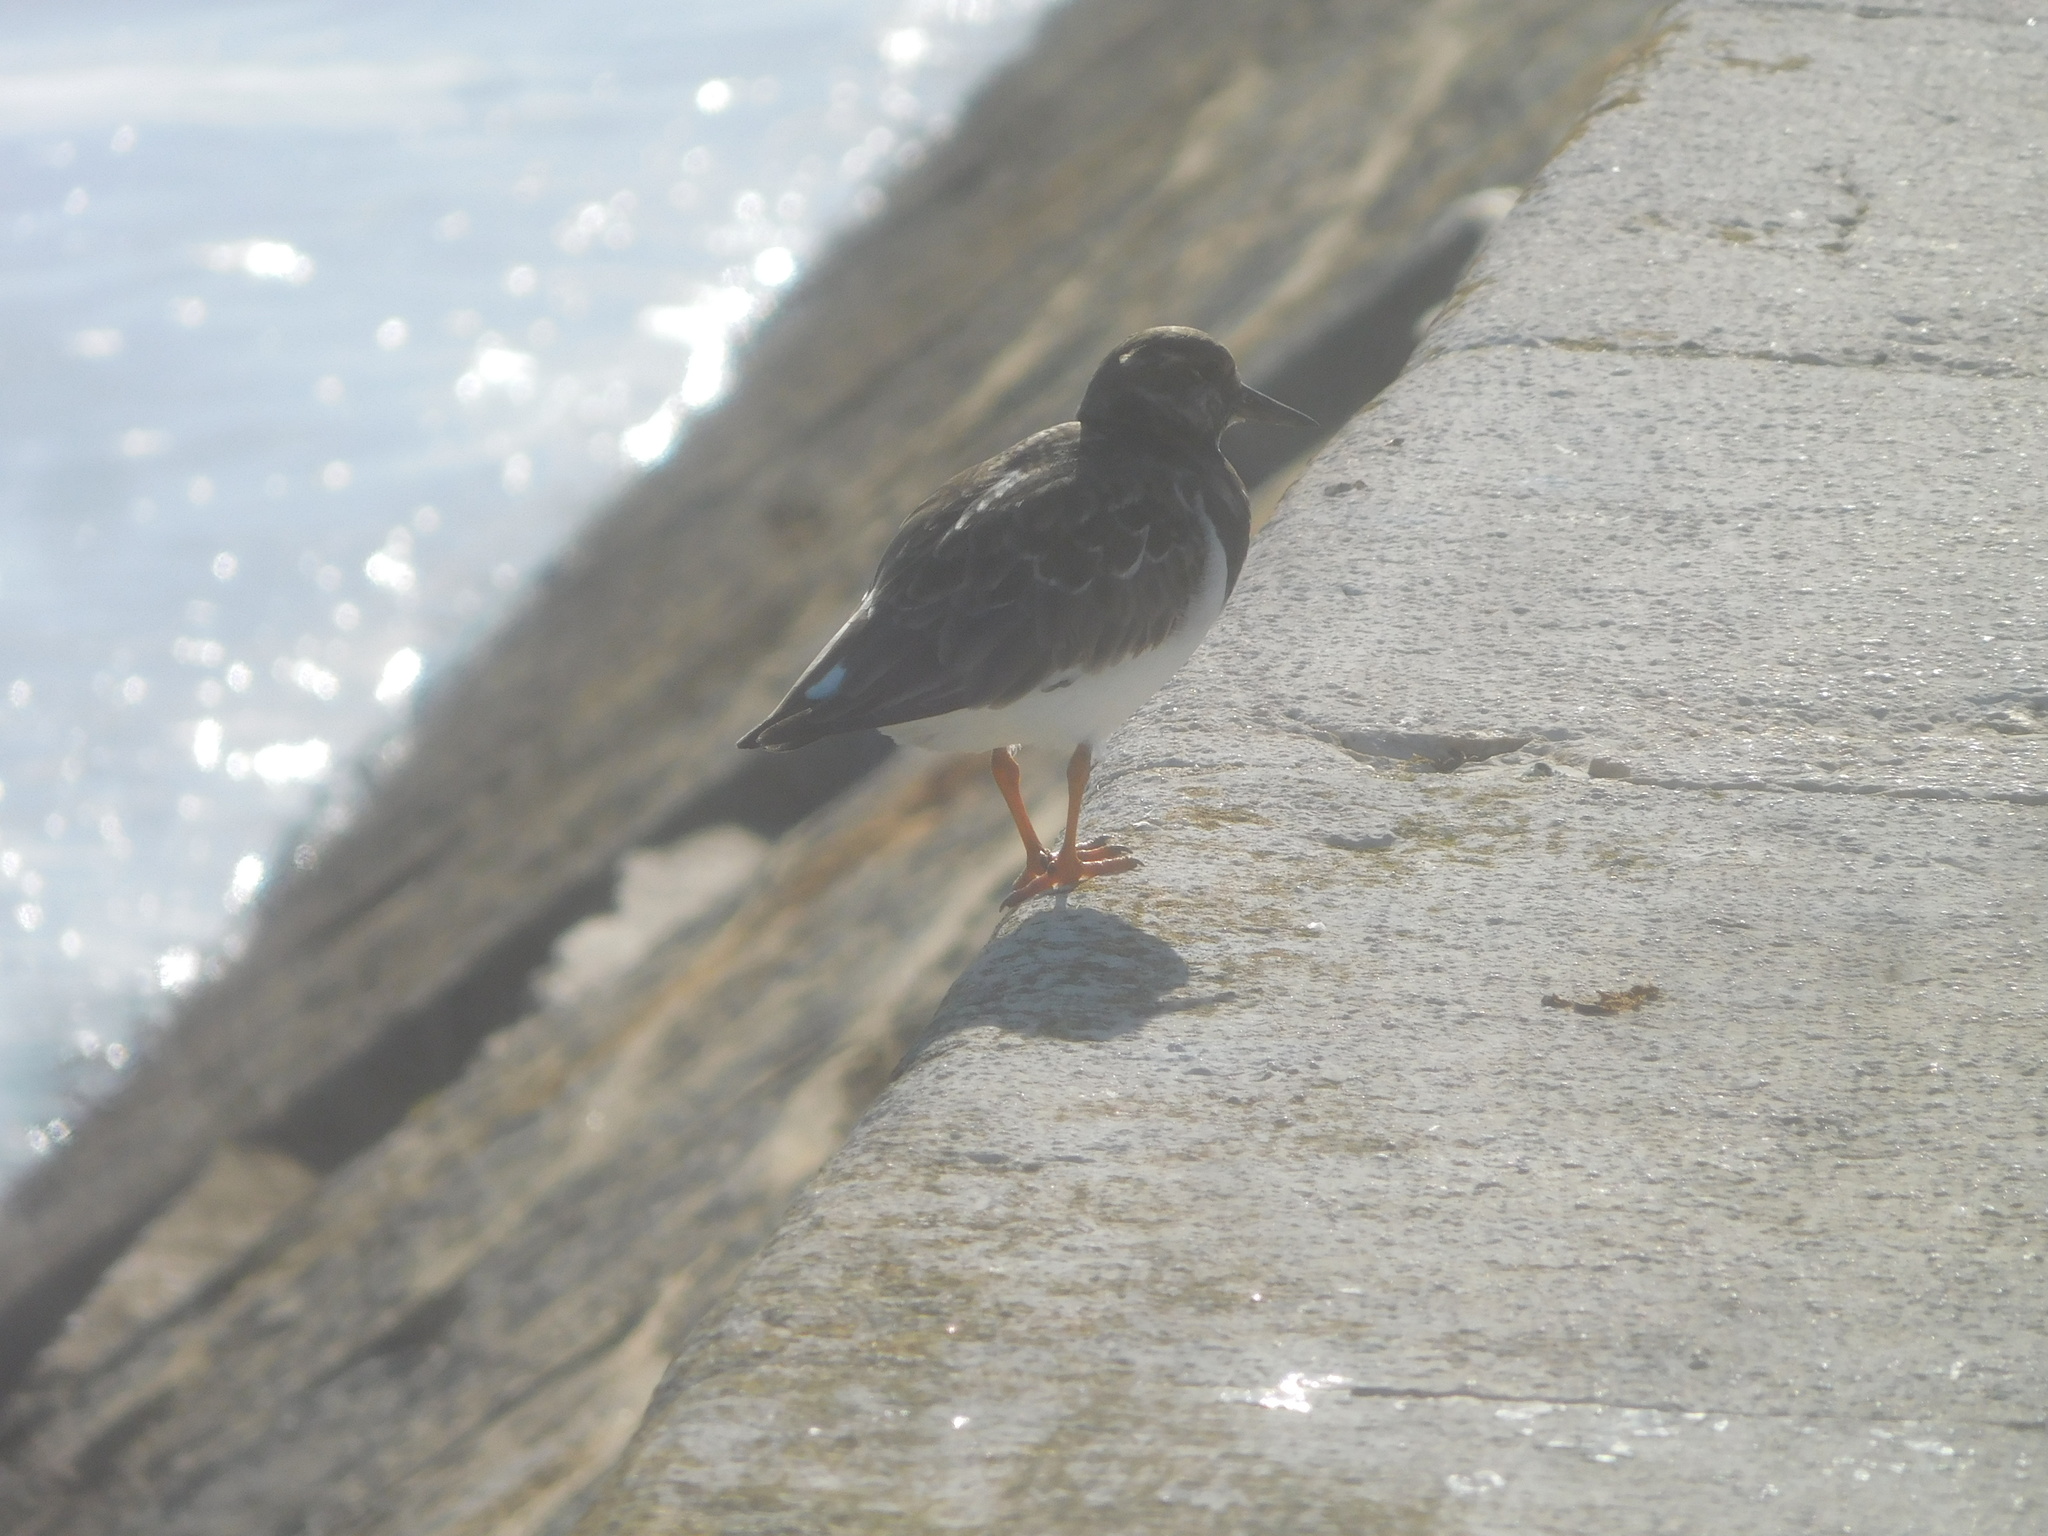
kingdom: Animalia
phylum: Chordata
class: Aves
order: Charadriiformes
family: Scolopacidae
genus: Arenaria
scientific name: Arenaria interpres
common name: Ruddy turnstone
